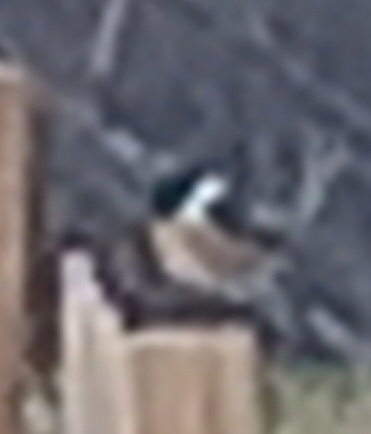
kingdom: Animalia
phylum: Chordata
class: Aves
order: Passeriformes
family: Muscicapidae
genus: Saxicola
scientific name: Saxicola rubicola
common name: European stonechat
